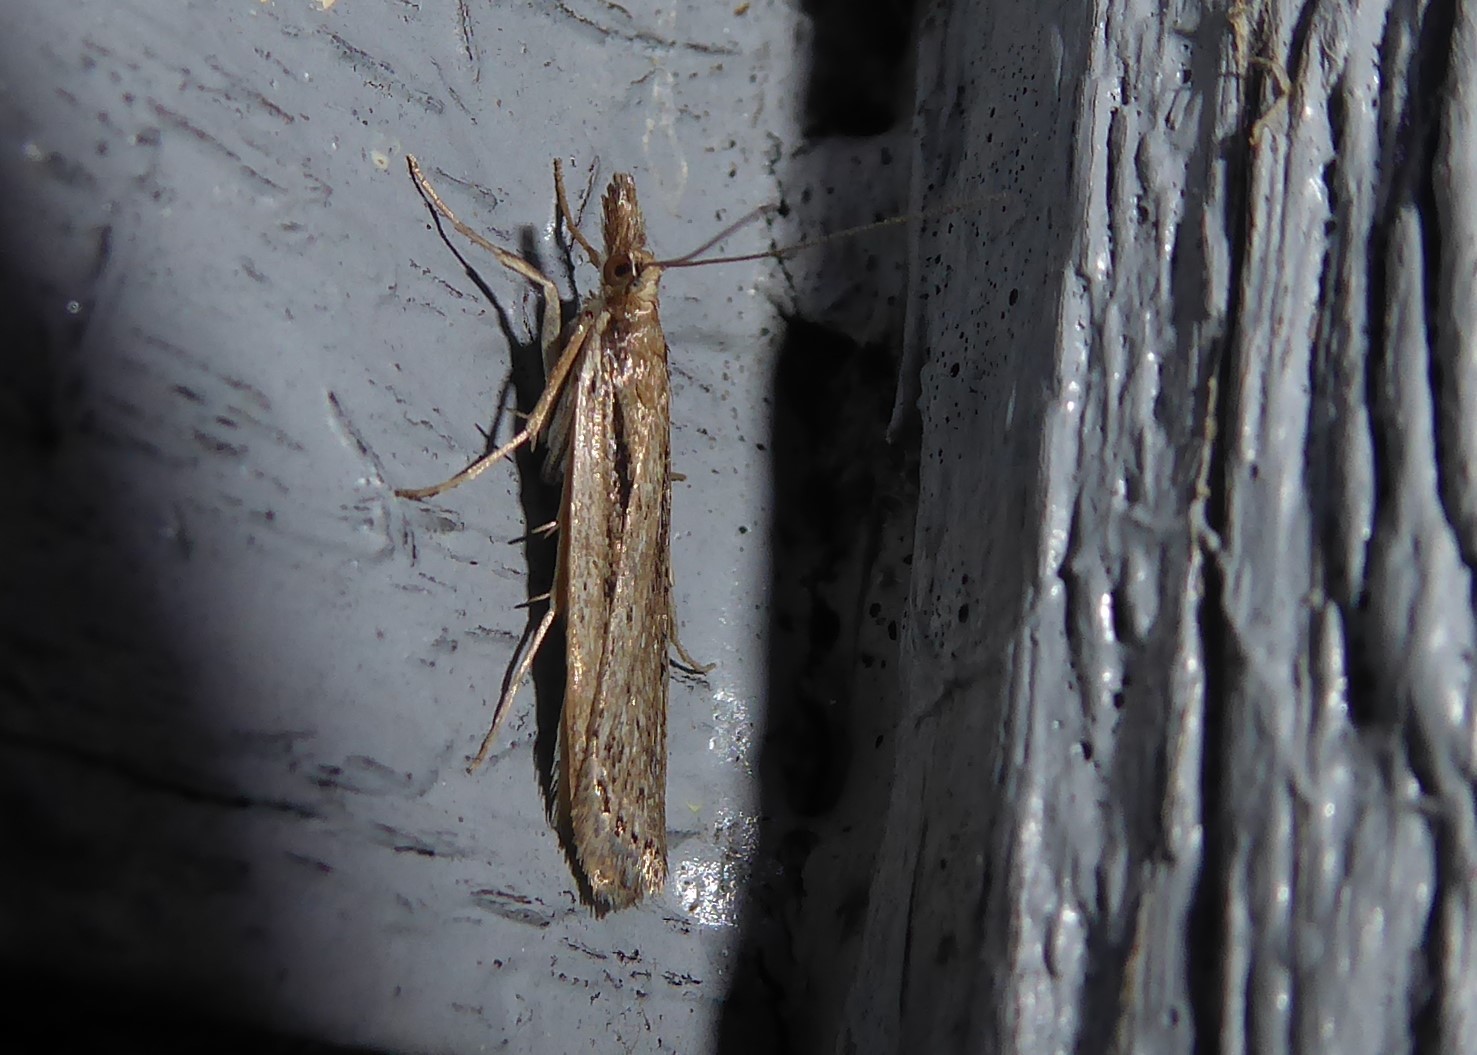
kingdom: Animalia
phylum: Arthropoda
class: Insecta
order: Lepidoptera
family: Crambidae
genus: Eudonia
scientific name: Eudonia sabulosella
